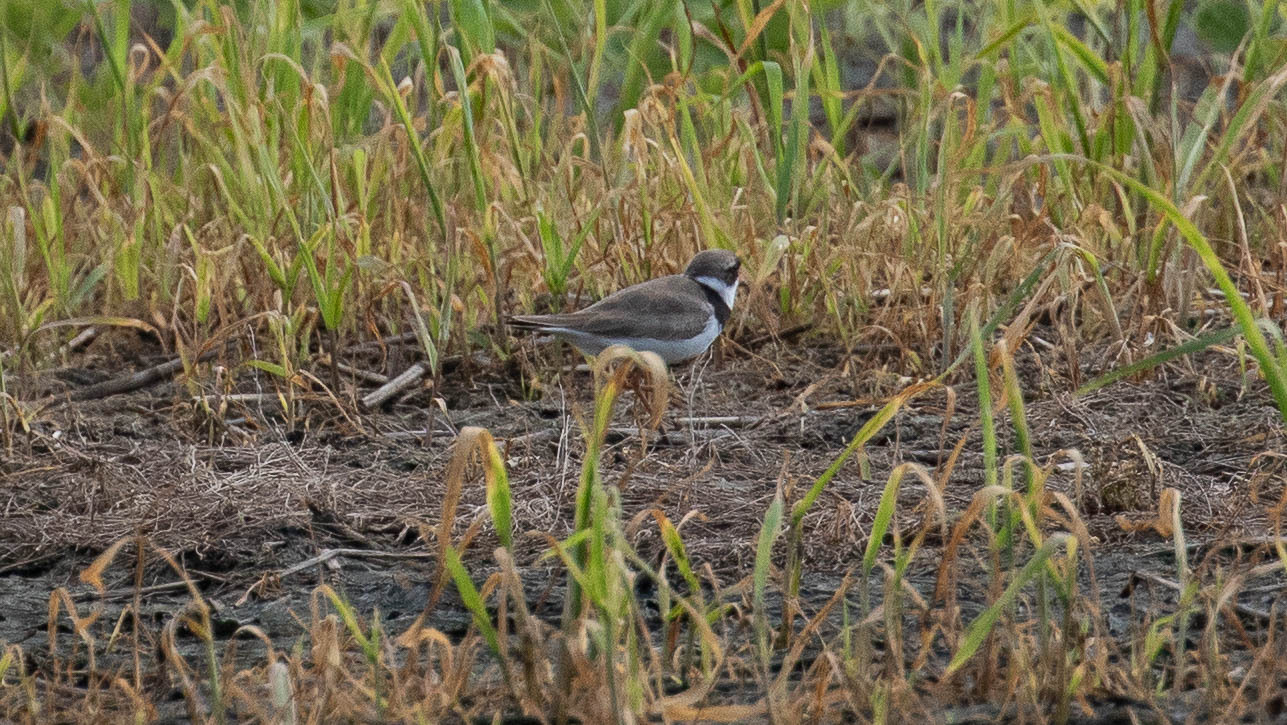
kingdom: Animalia
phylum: Chordata
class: Aves
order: Charadriiformes
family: Charadriidae
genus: Charadrius
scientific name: Charadrius semipalmatus
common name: Semipalmated plover
